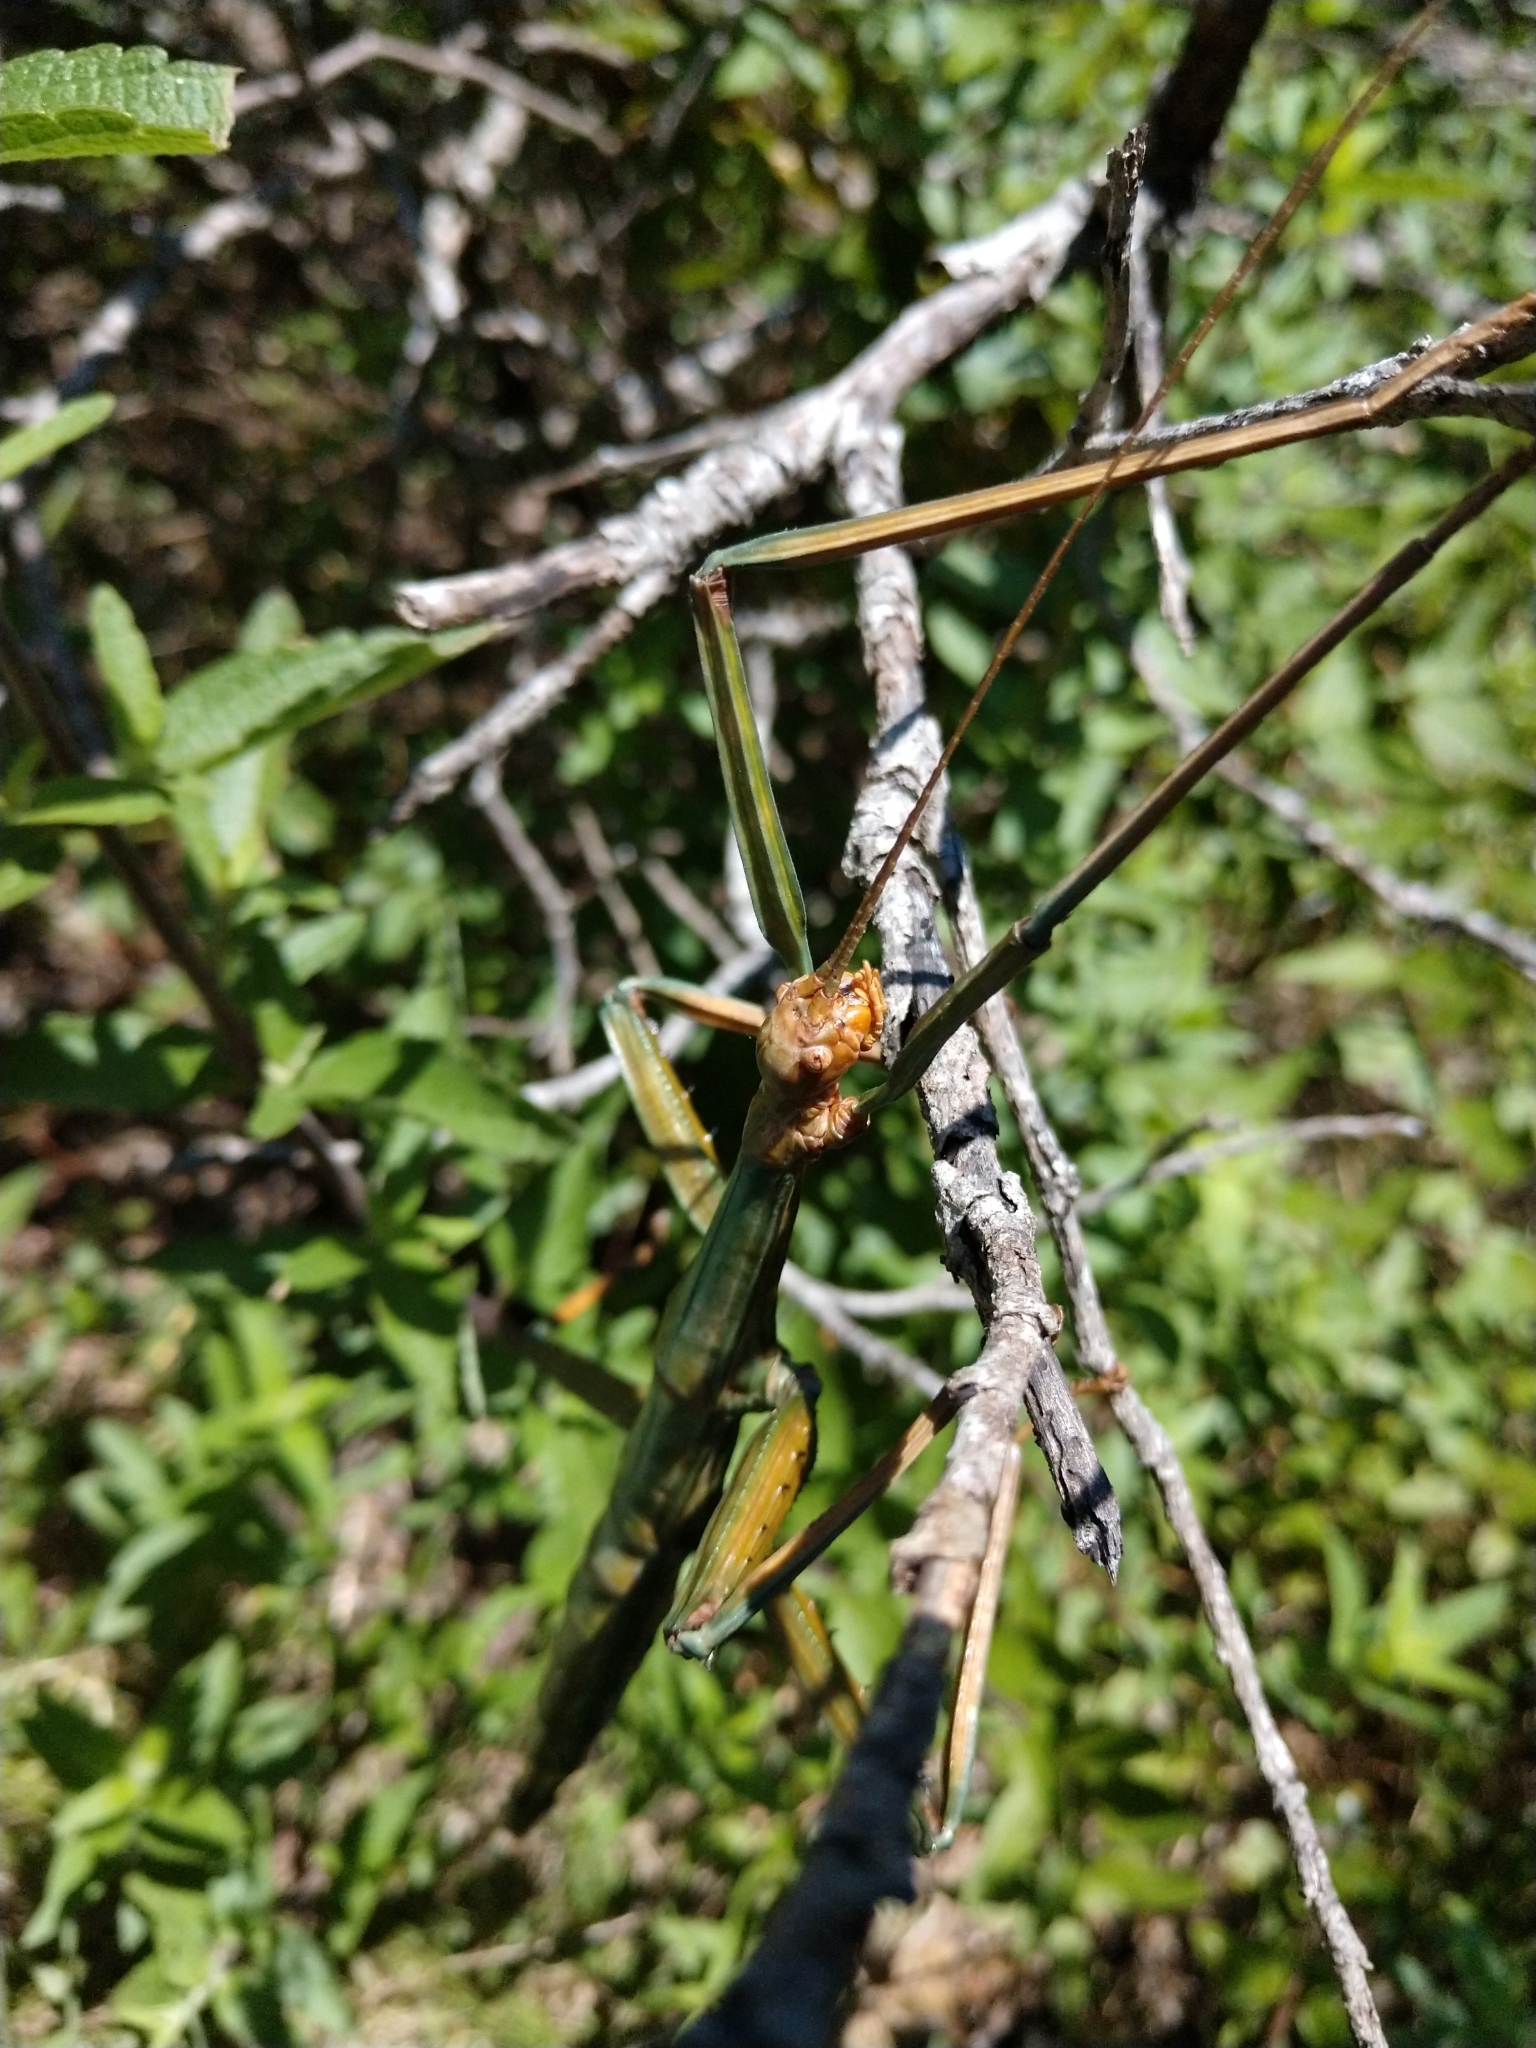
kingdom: Animalia
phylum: Arthropoda
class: Insecta
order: Phasmida
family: Diapheromeridae
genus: Megaphasma
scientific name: Megaphasma denticrus
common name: Giant walkingstick
